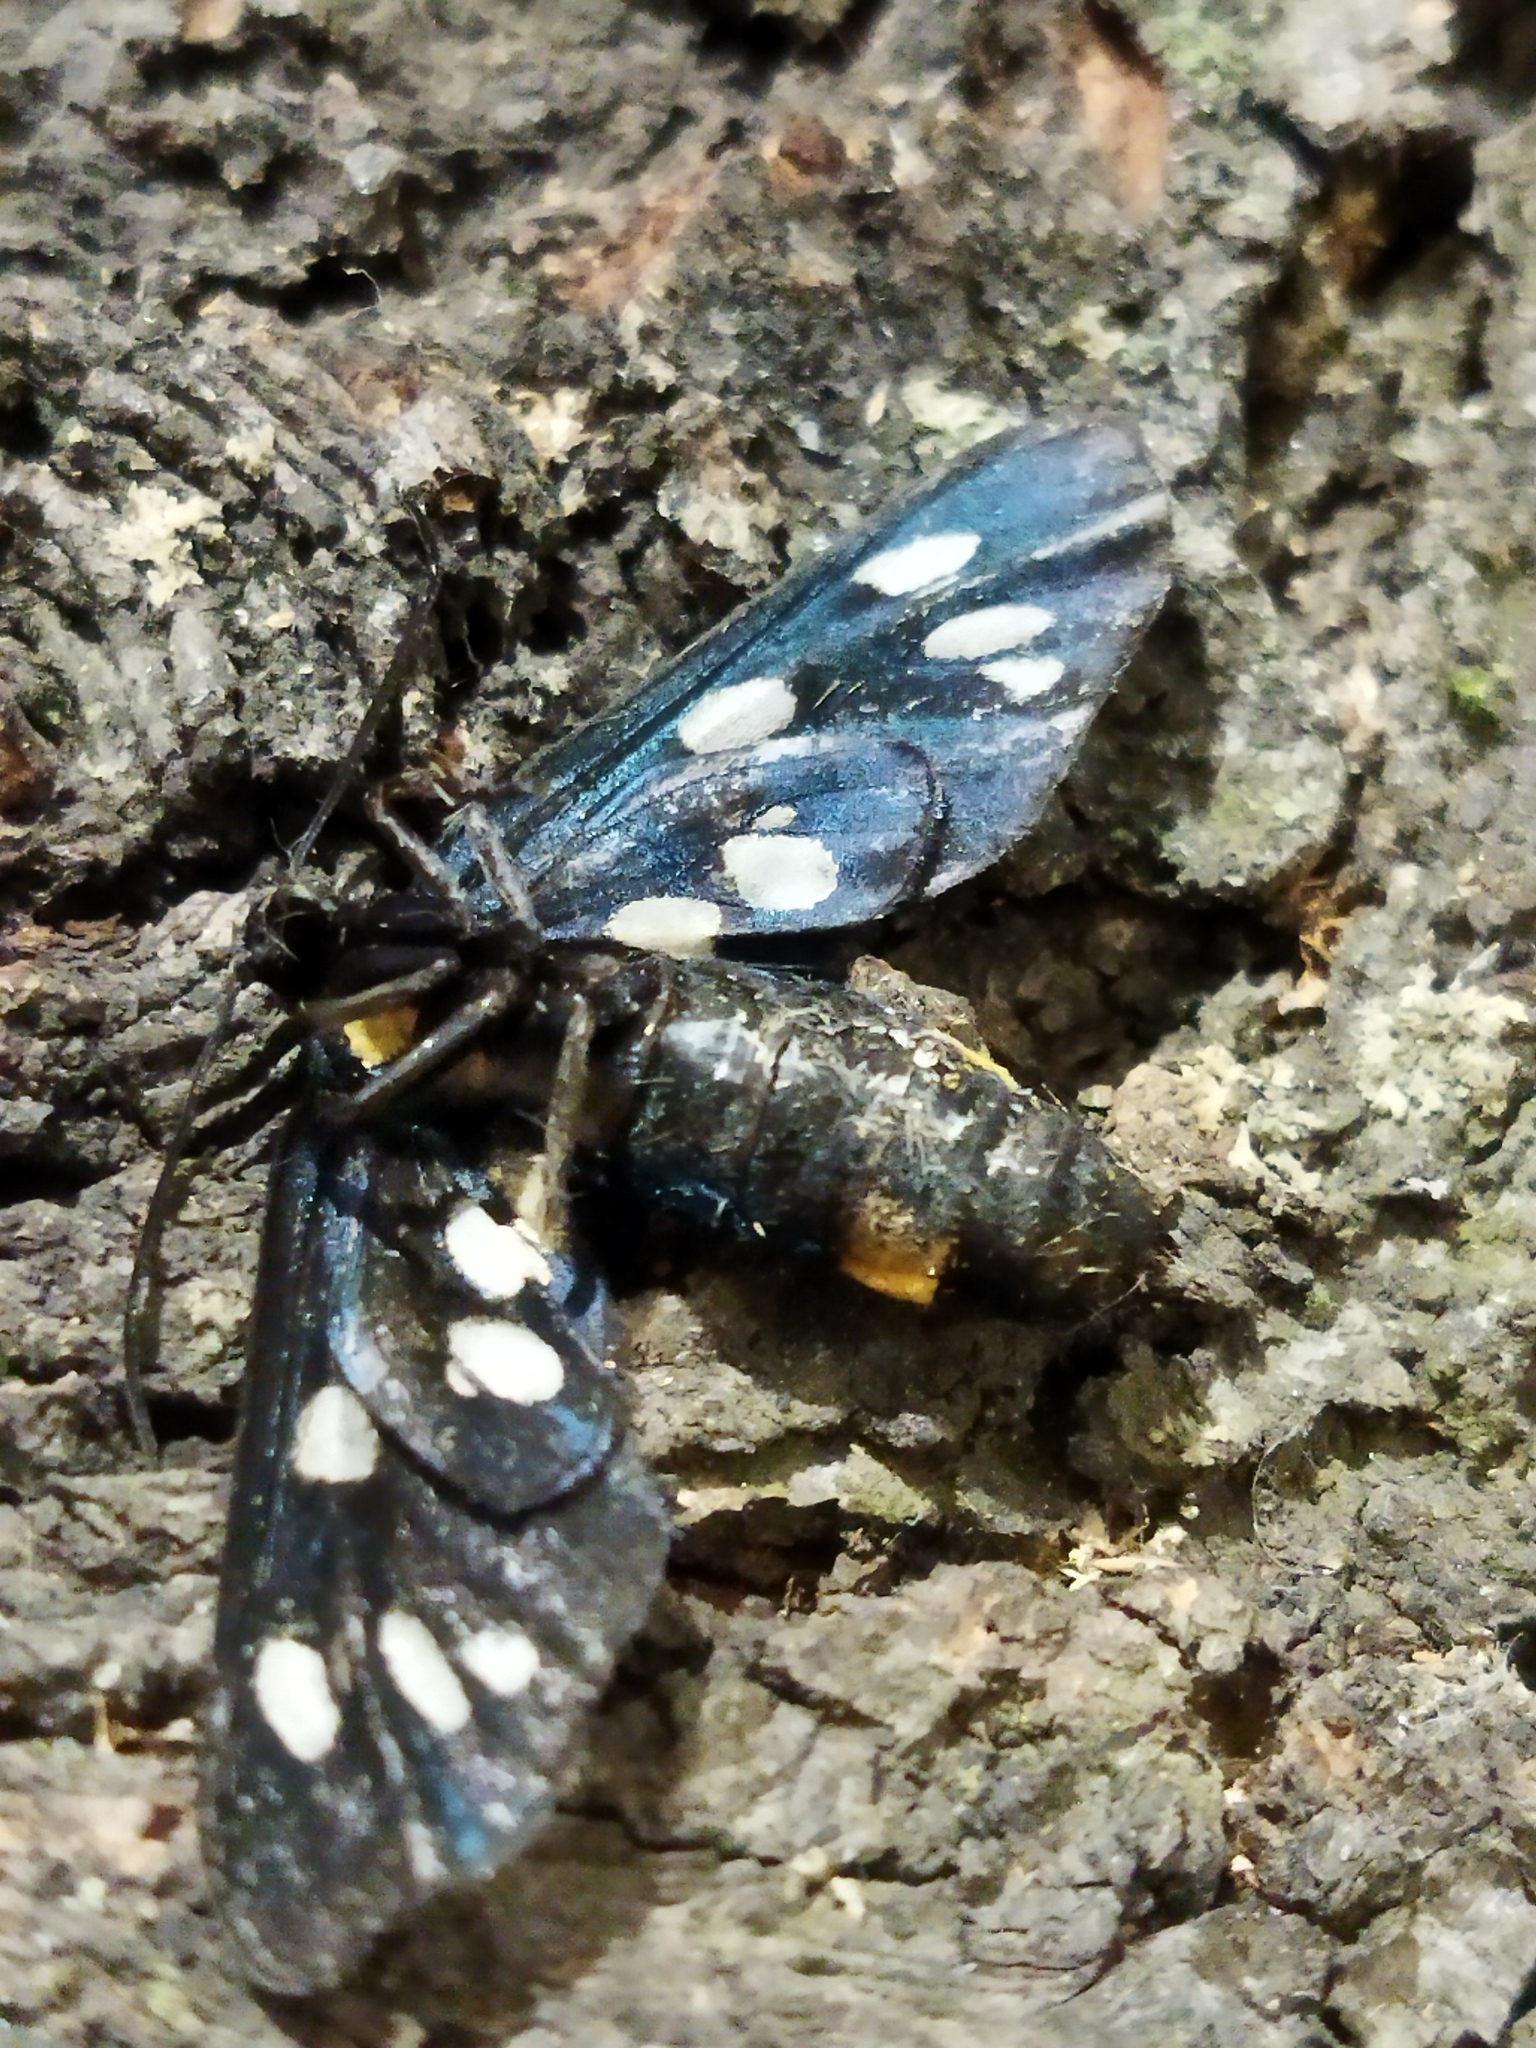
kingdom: Animalia
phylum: Arthropoda
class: Insecta
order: Lepidoptera
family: Erebidae
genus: Amata
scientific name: Amata phegea
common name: Nine-spotted
